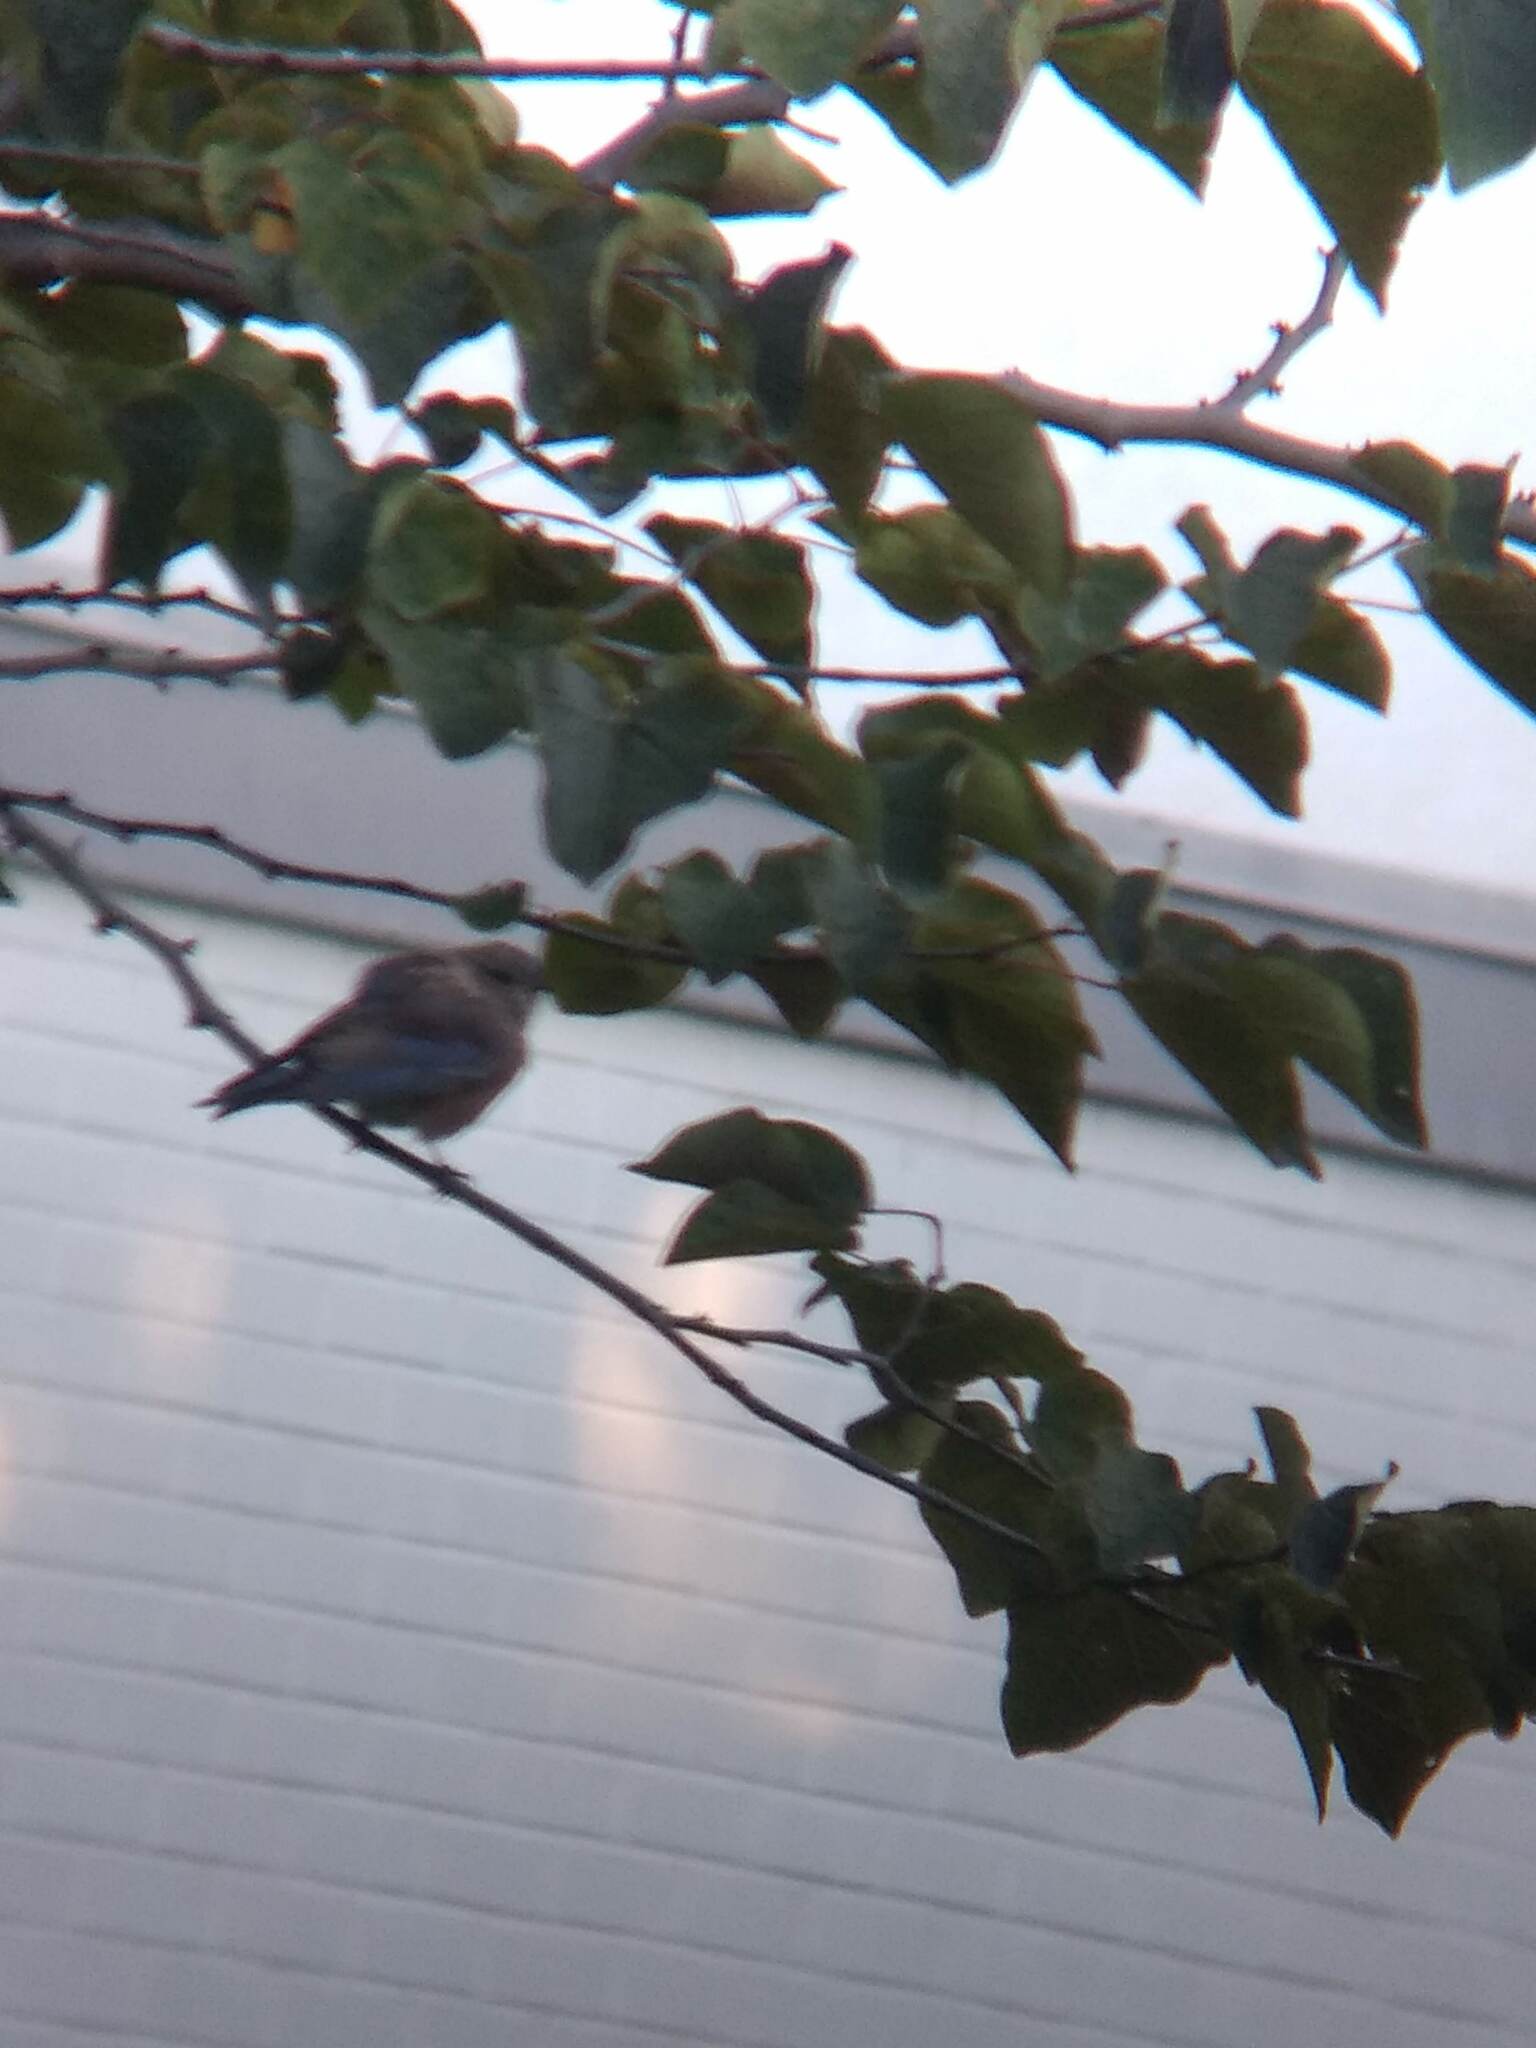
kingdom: Animalia
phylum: Chordata
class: Aves
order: Passeriformes
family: Turdidae
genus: Sialia
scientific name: Sialia mexicana
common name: Western bluebird
